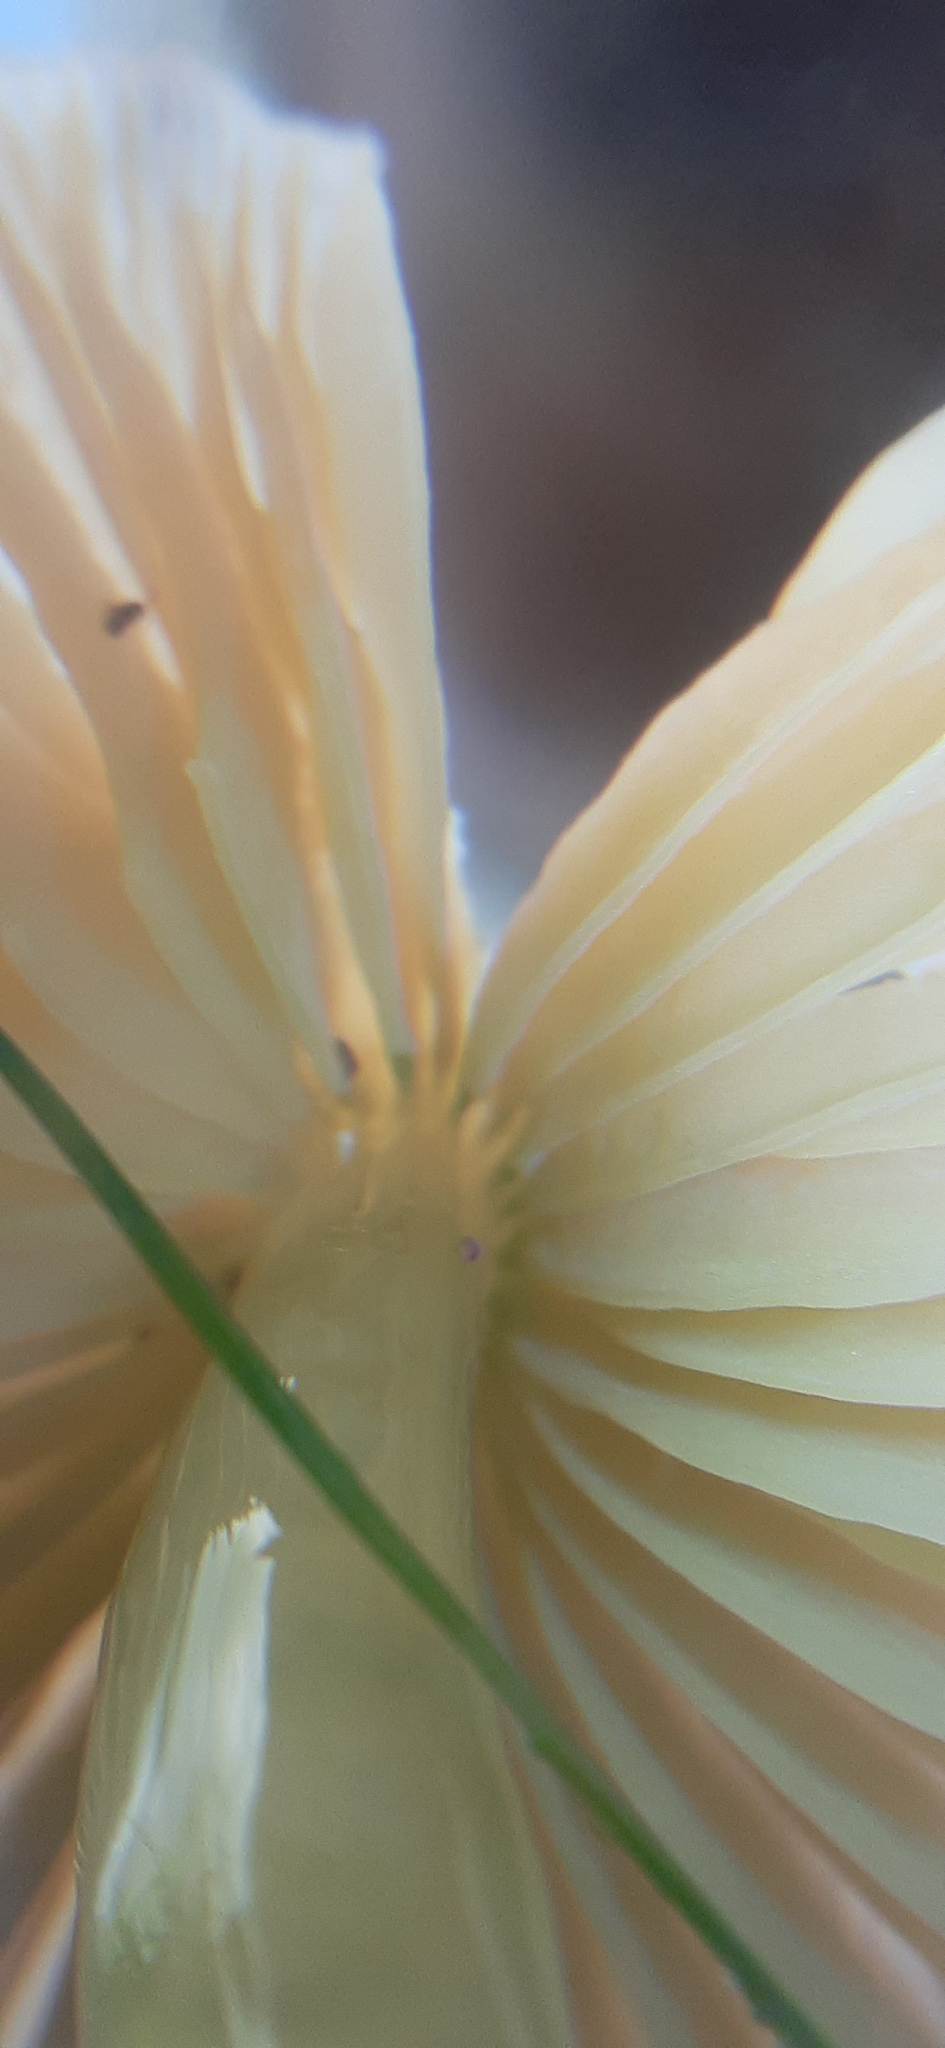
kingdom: Fungi
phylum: Basidiomycota
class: Agaricomycetes
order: Agaricales
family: Hygrophoraceae
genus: Gliophorus
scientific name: Gliophorus psittacinus
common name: Parrot wax-cap
